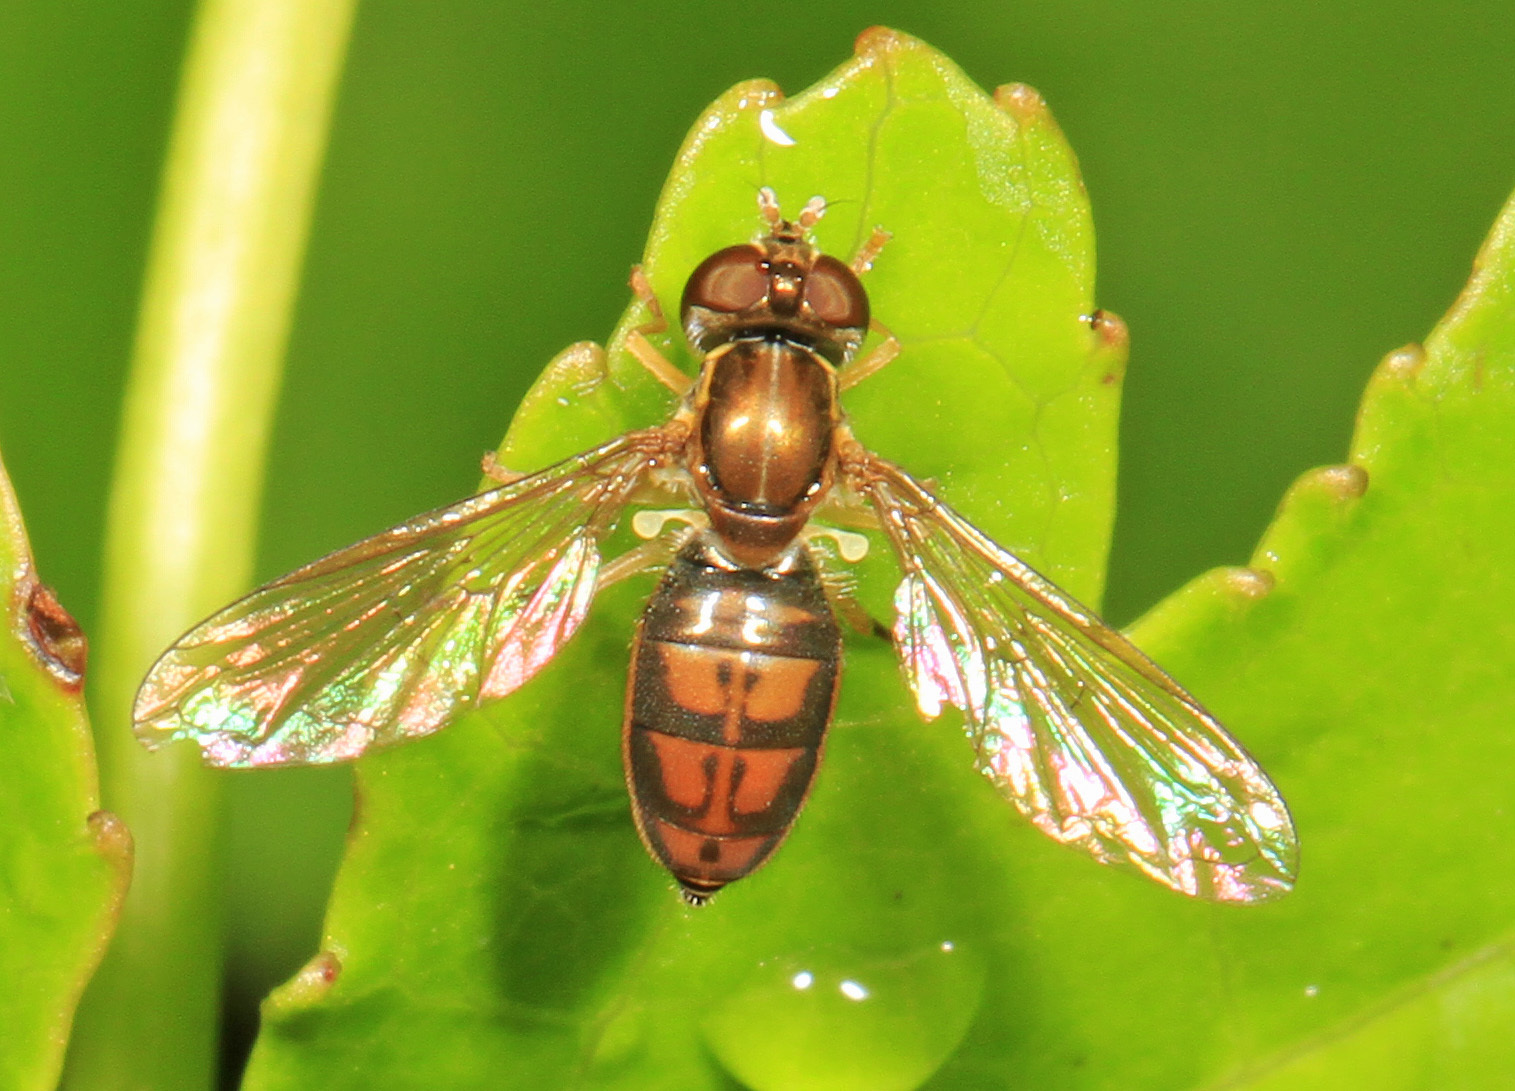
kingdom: Animalia
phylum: Arthropoda
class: Insecta
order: Diptera
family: Syrphidae
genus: Toxomerus
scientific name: Toxomerus marginatus
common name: Syrphid fly
